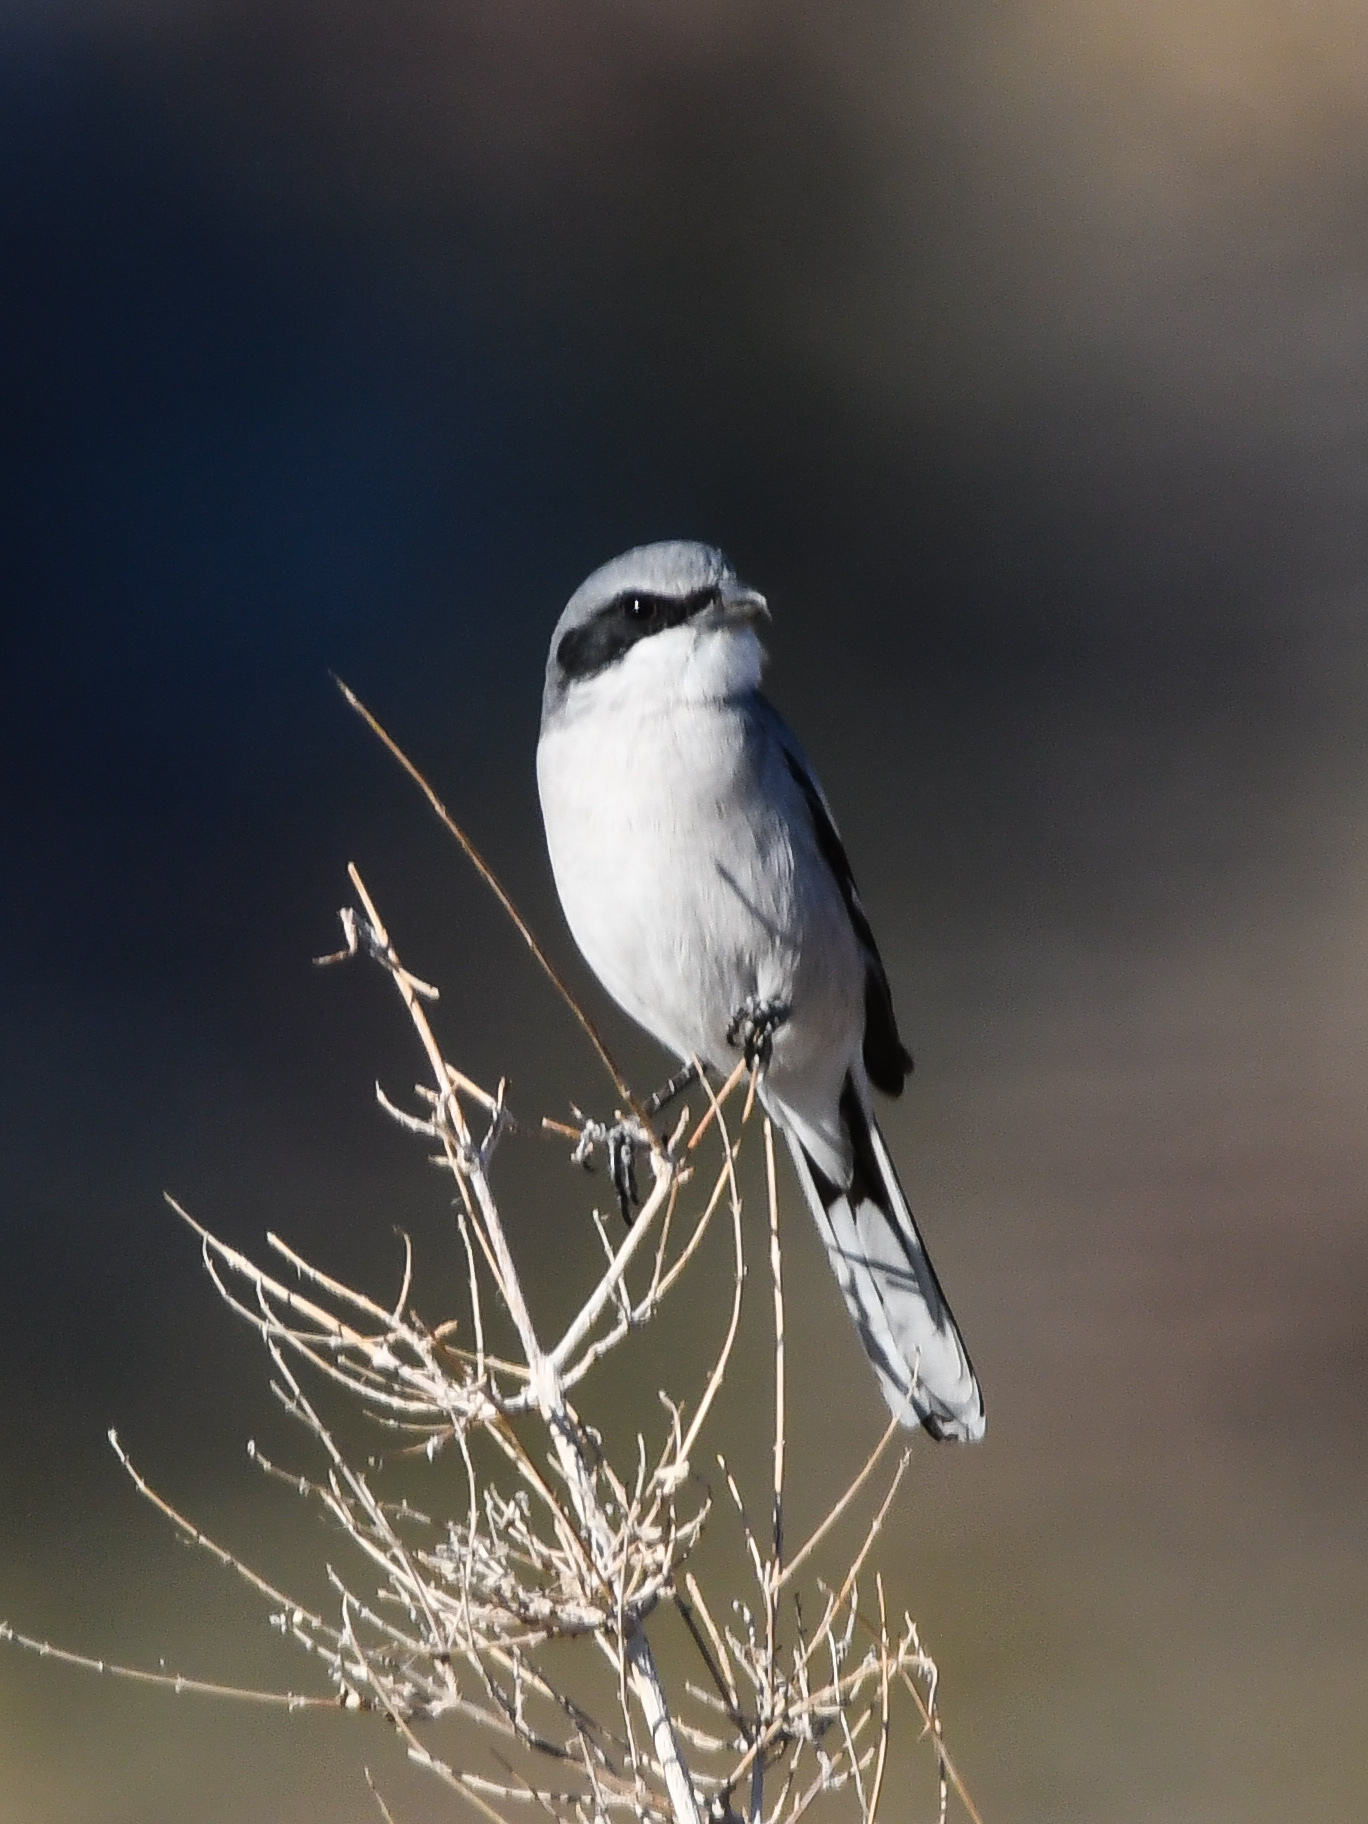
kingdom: Animalia
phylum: Chordata
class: Aves
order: Passeriformes
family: Laniidae
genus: Lanius
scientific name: Lanius ludovicianus
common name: Loggerhead shrike
